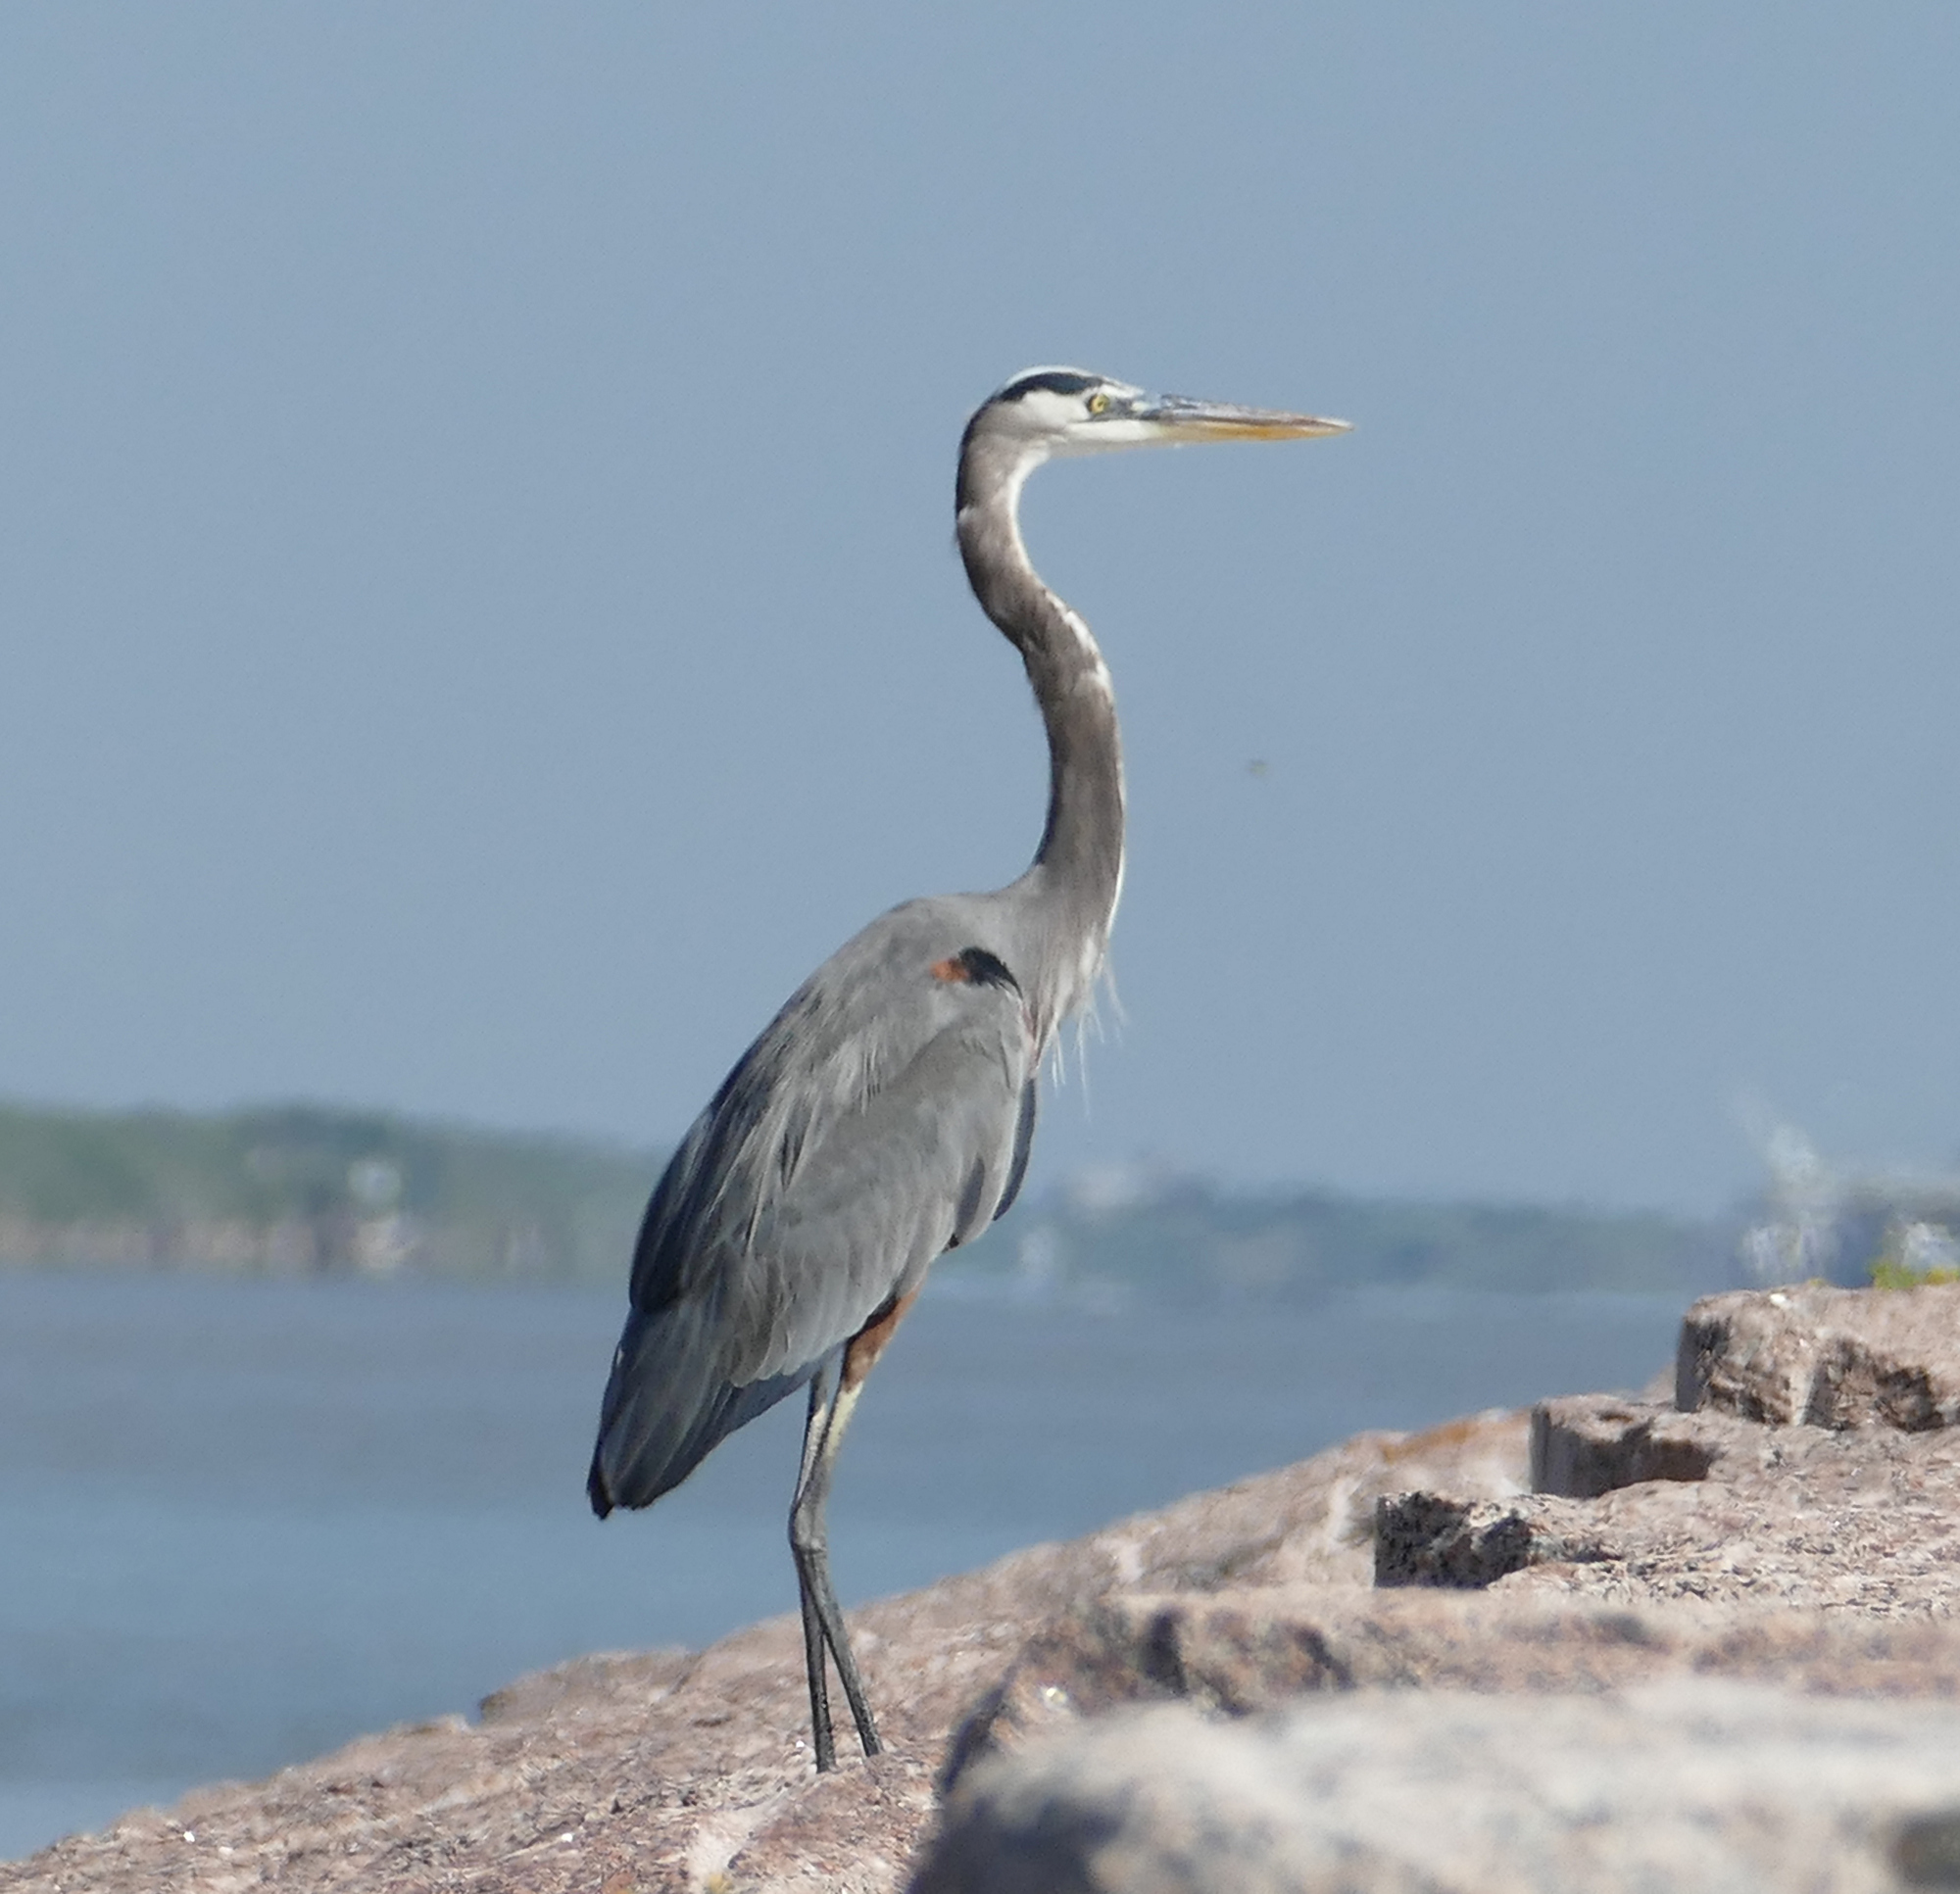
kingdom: Animalia
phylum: Chordata
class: Aves
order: Pelecaniformes
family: Ardeidae
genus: Ardea
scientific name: Ardea herodias
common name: Great blue heron
